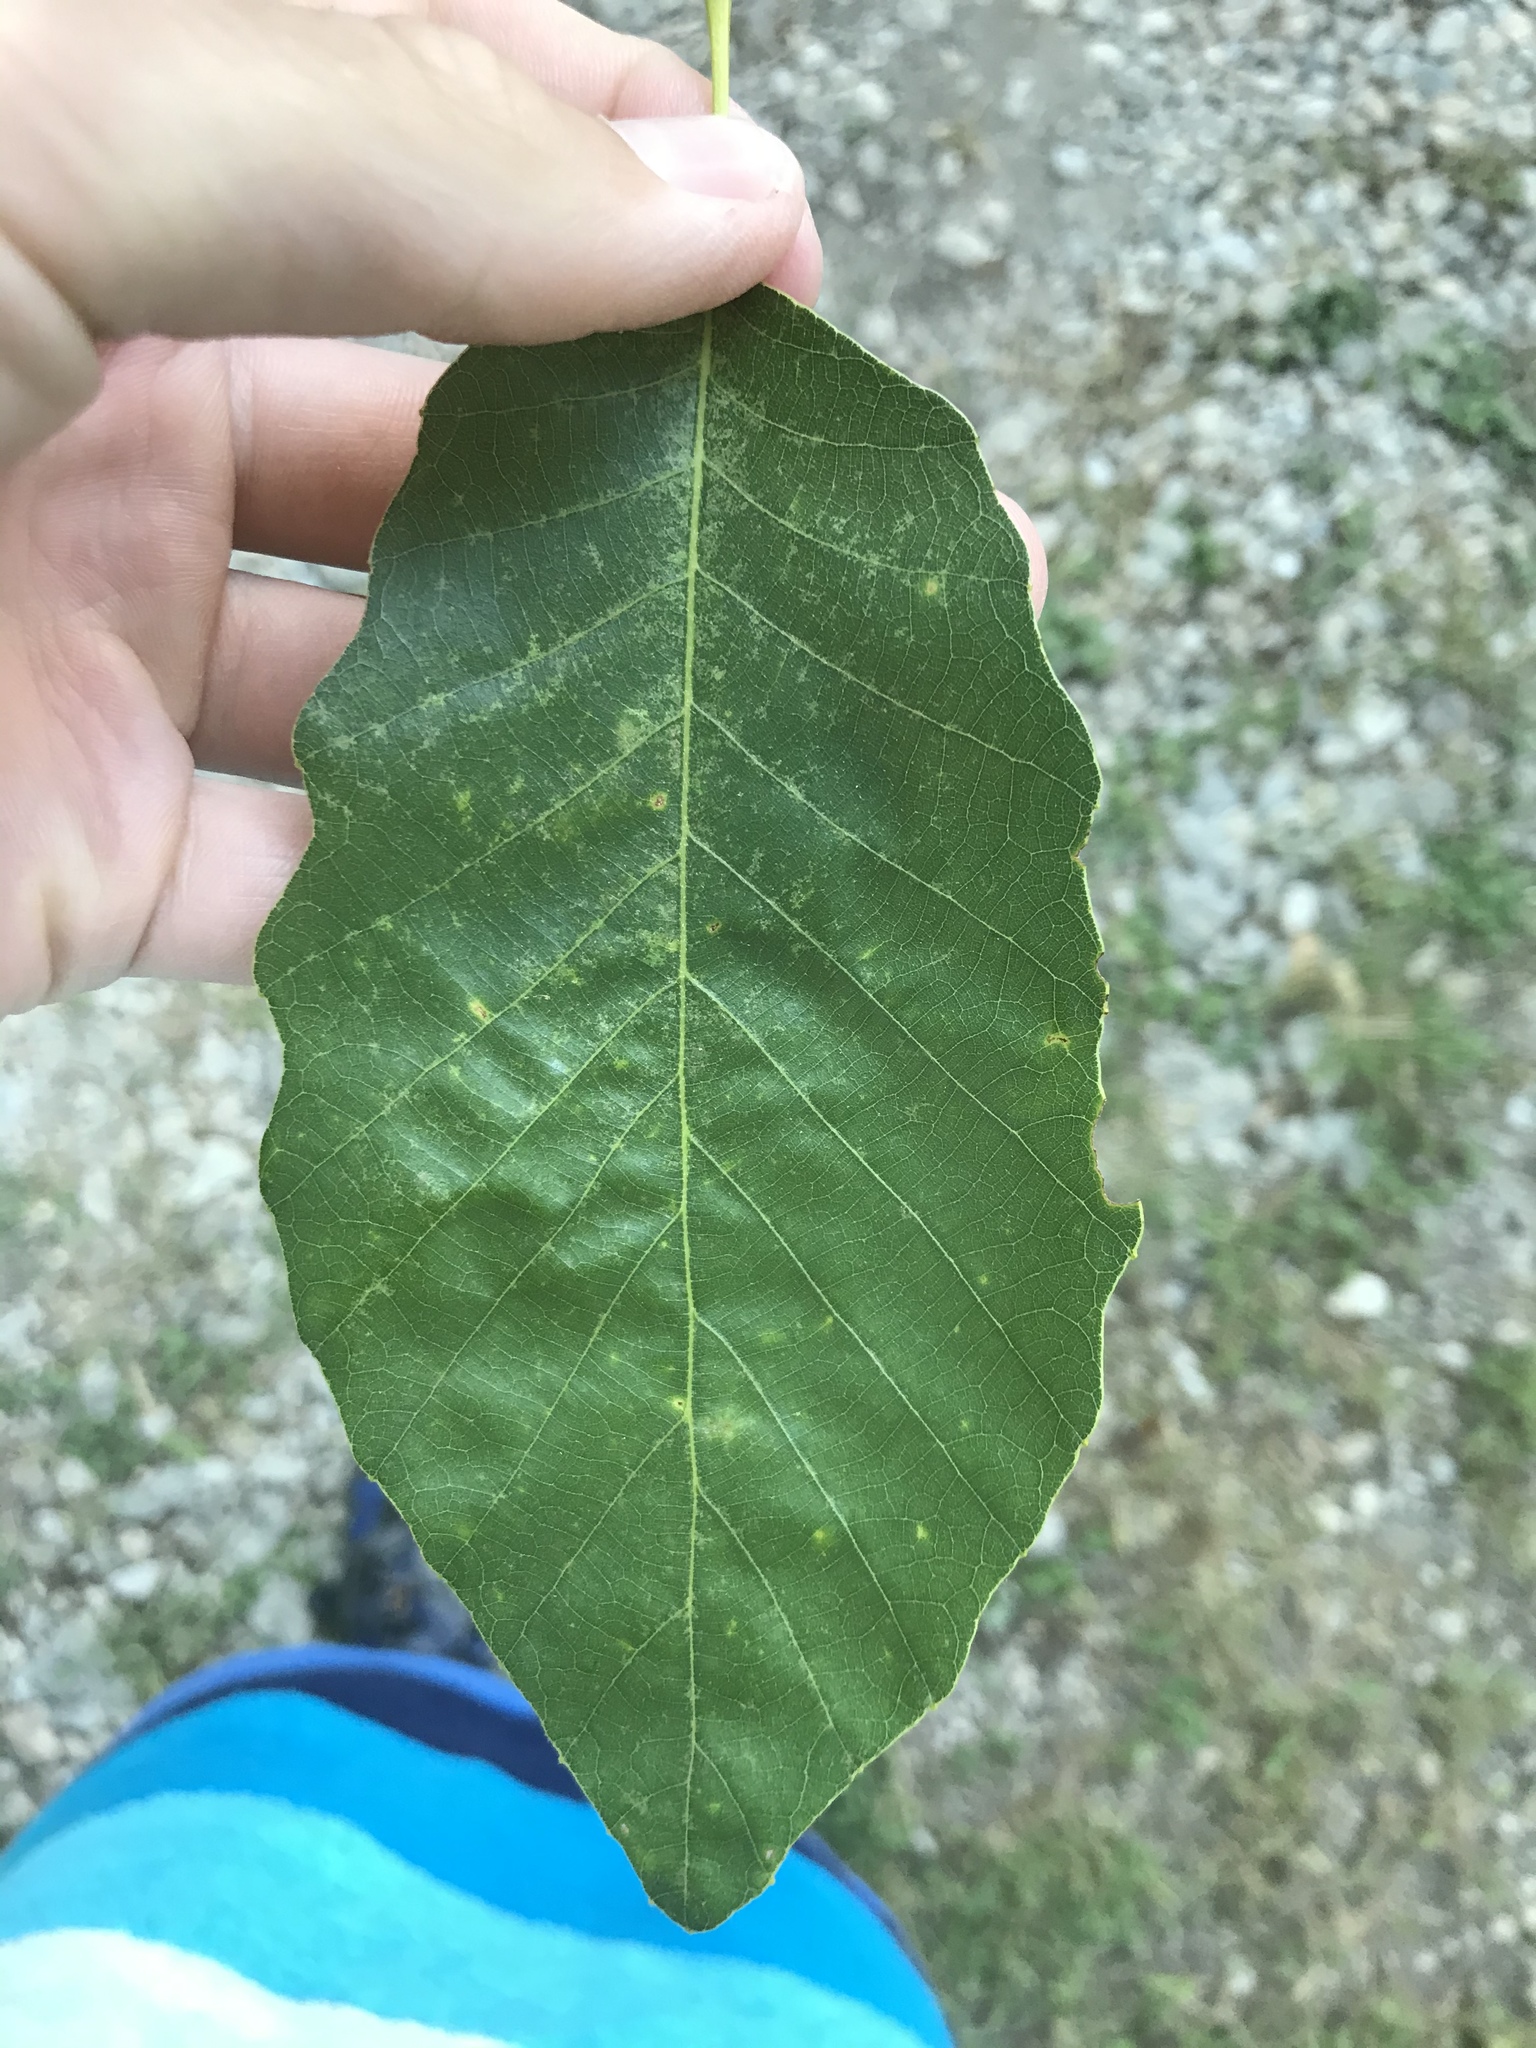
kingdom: Plantae
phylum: Tracheophyta
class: Magnoliopsida
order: Fagales
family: Fagaceae
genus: Quercus
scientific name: Quercus muehlenbergii
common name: Chinkapin oak
